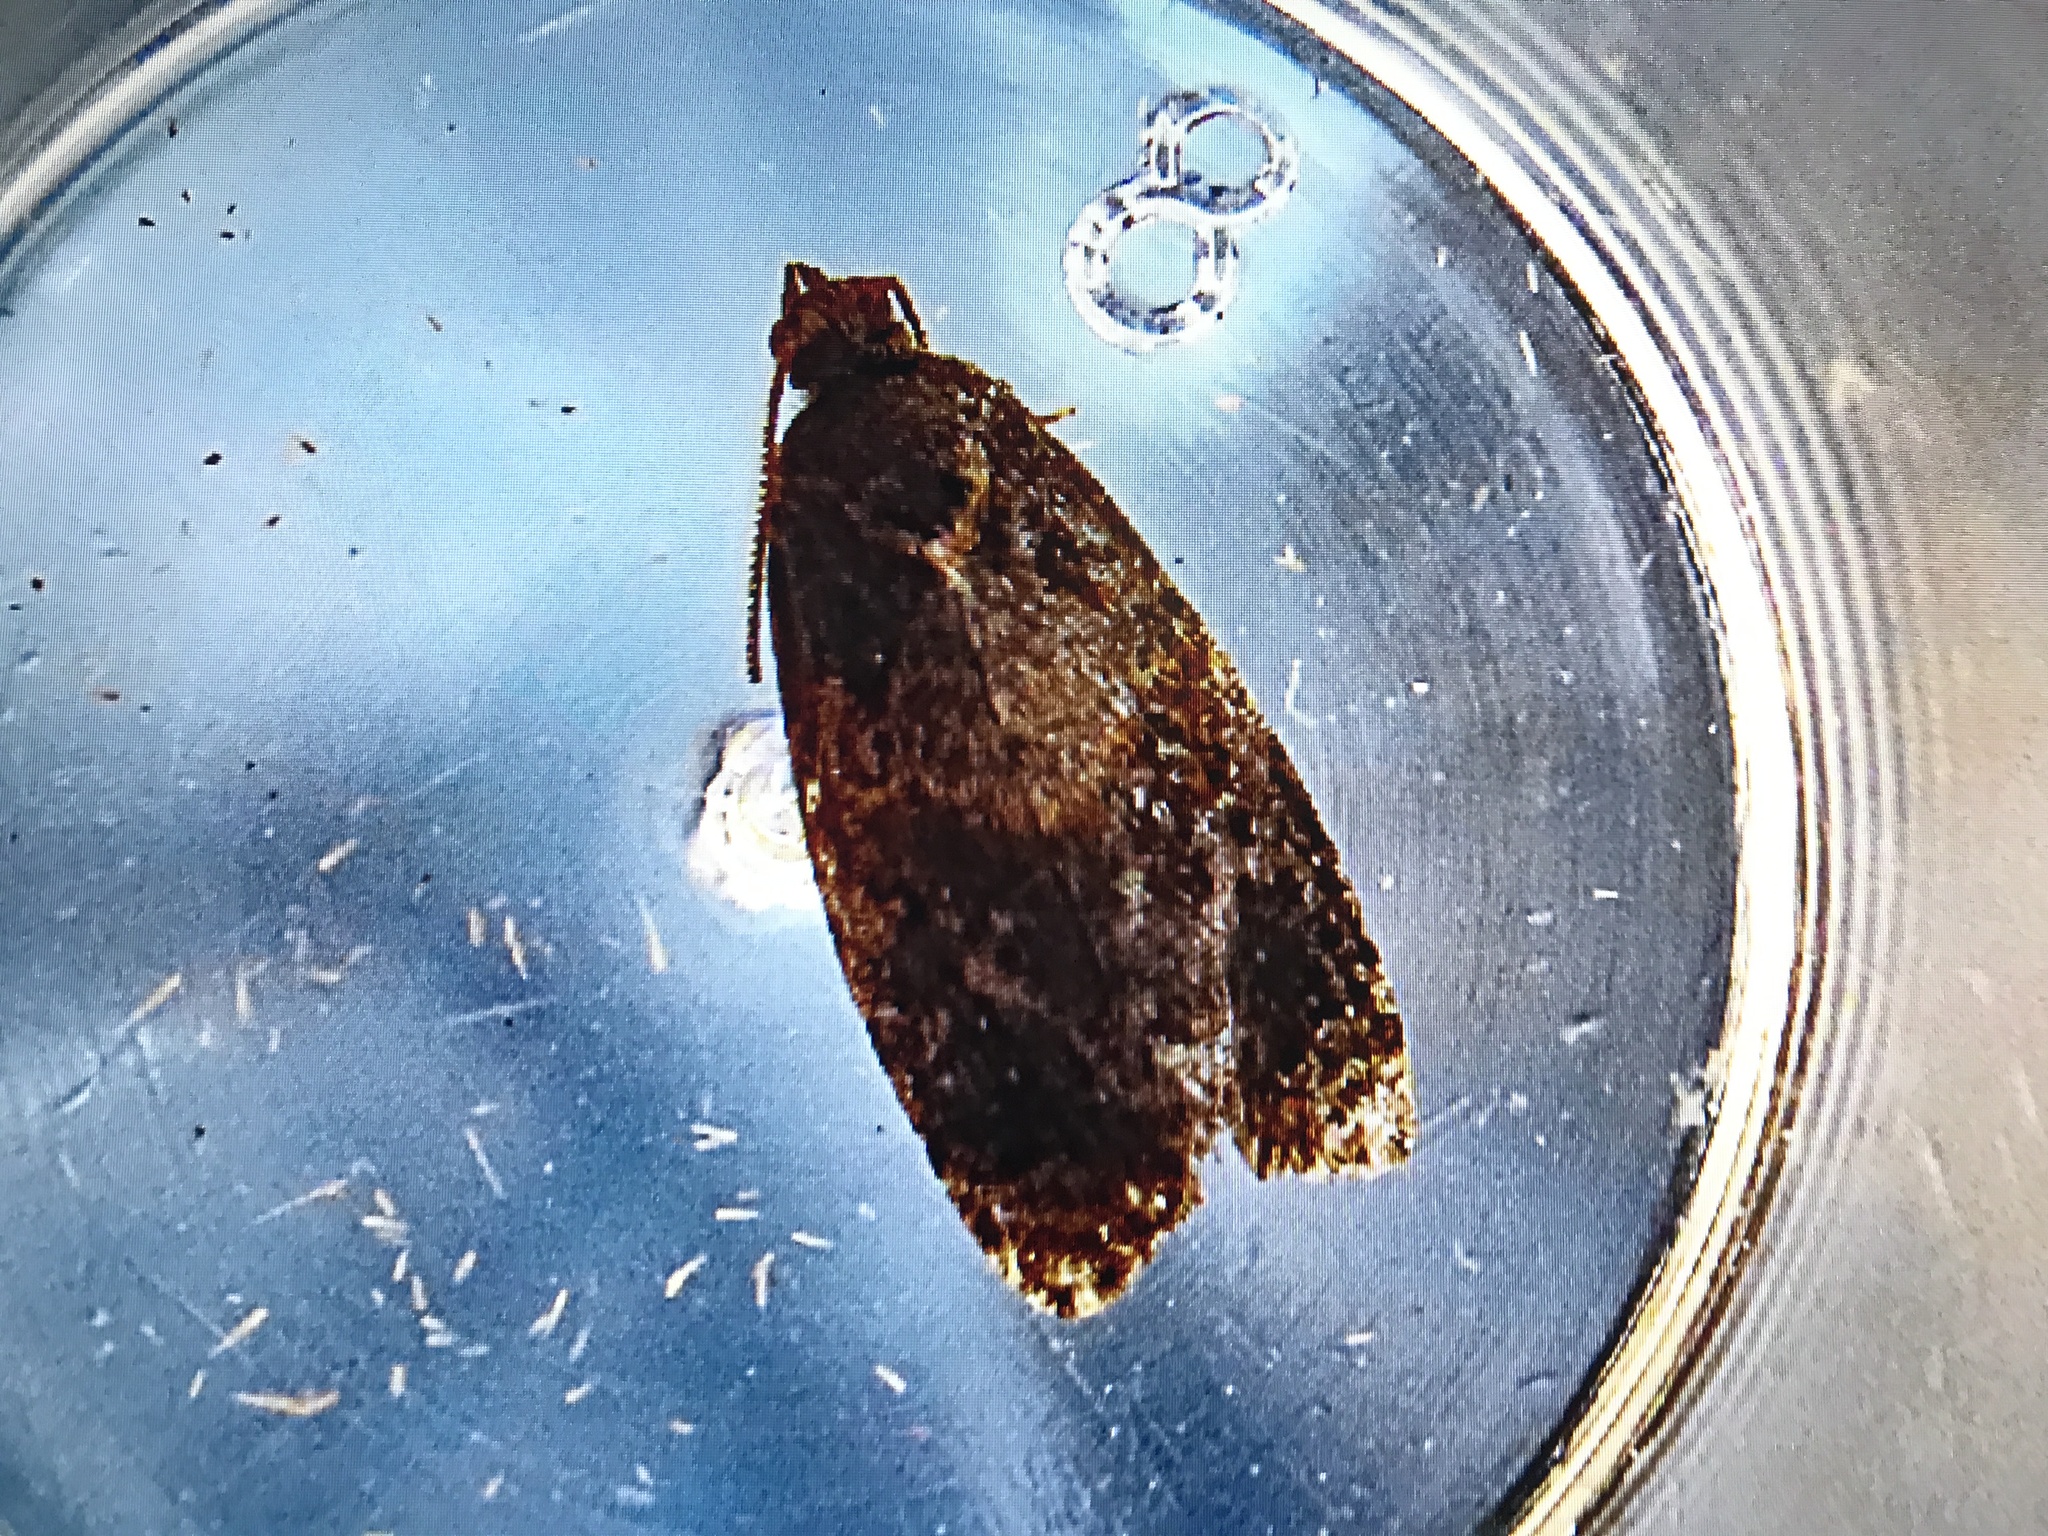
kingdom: Animalia
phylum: Arthropoda
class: Insecta
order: Lepidoptera
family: Tortricidae
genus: Syricoris
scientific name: Syricoris lacunana
